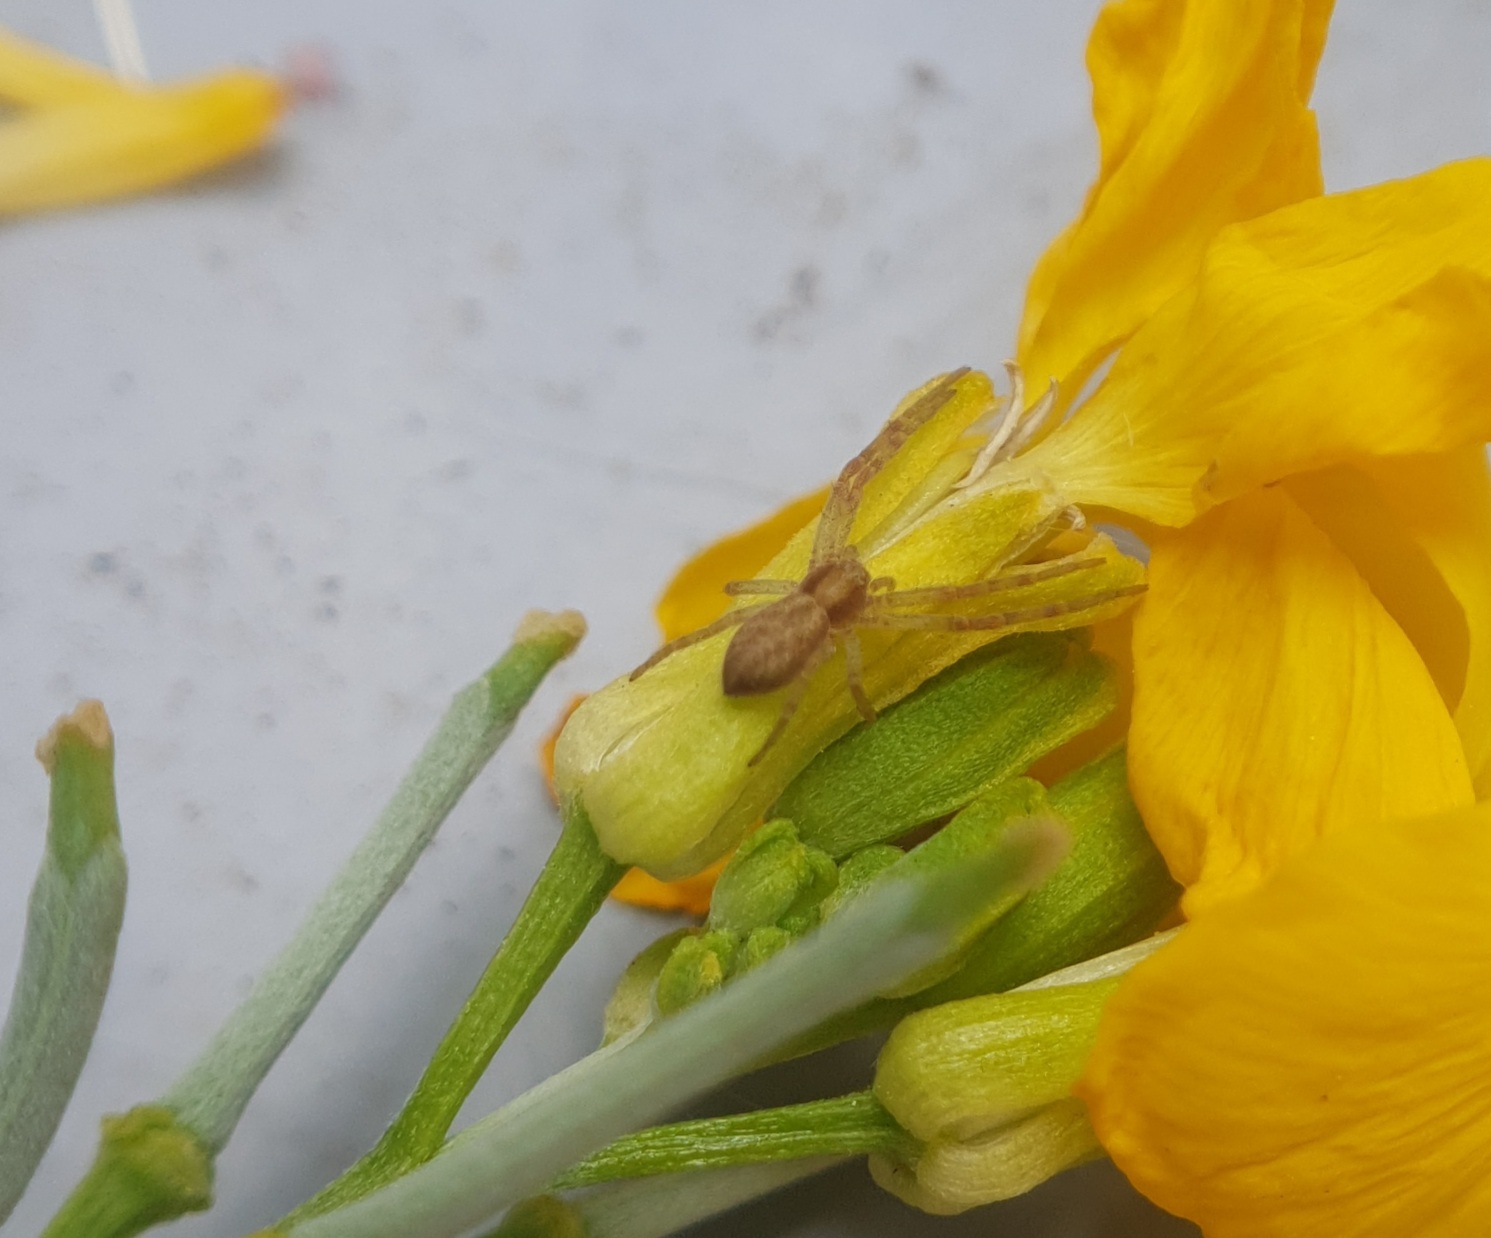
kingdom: Animalia
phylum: Arthropoda
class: Arachnida
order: Araneae
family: Philodromidae
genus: Philodromus
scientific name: Philodromus
